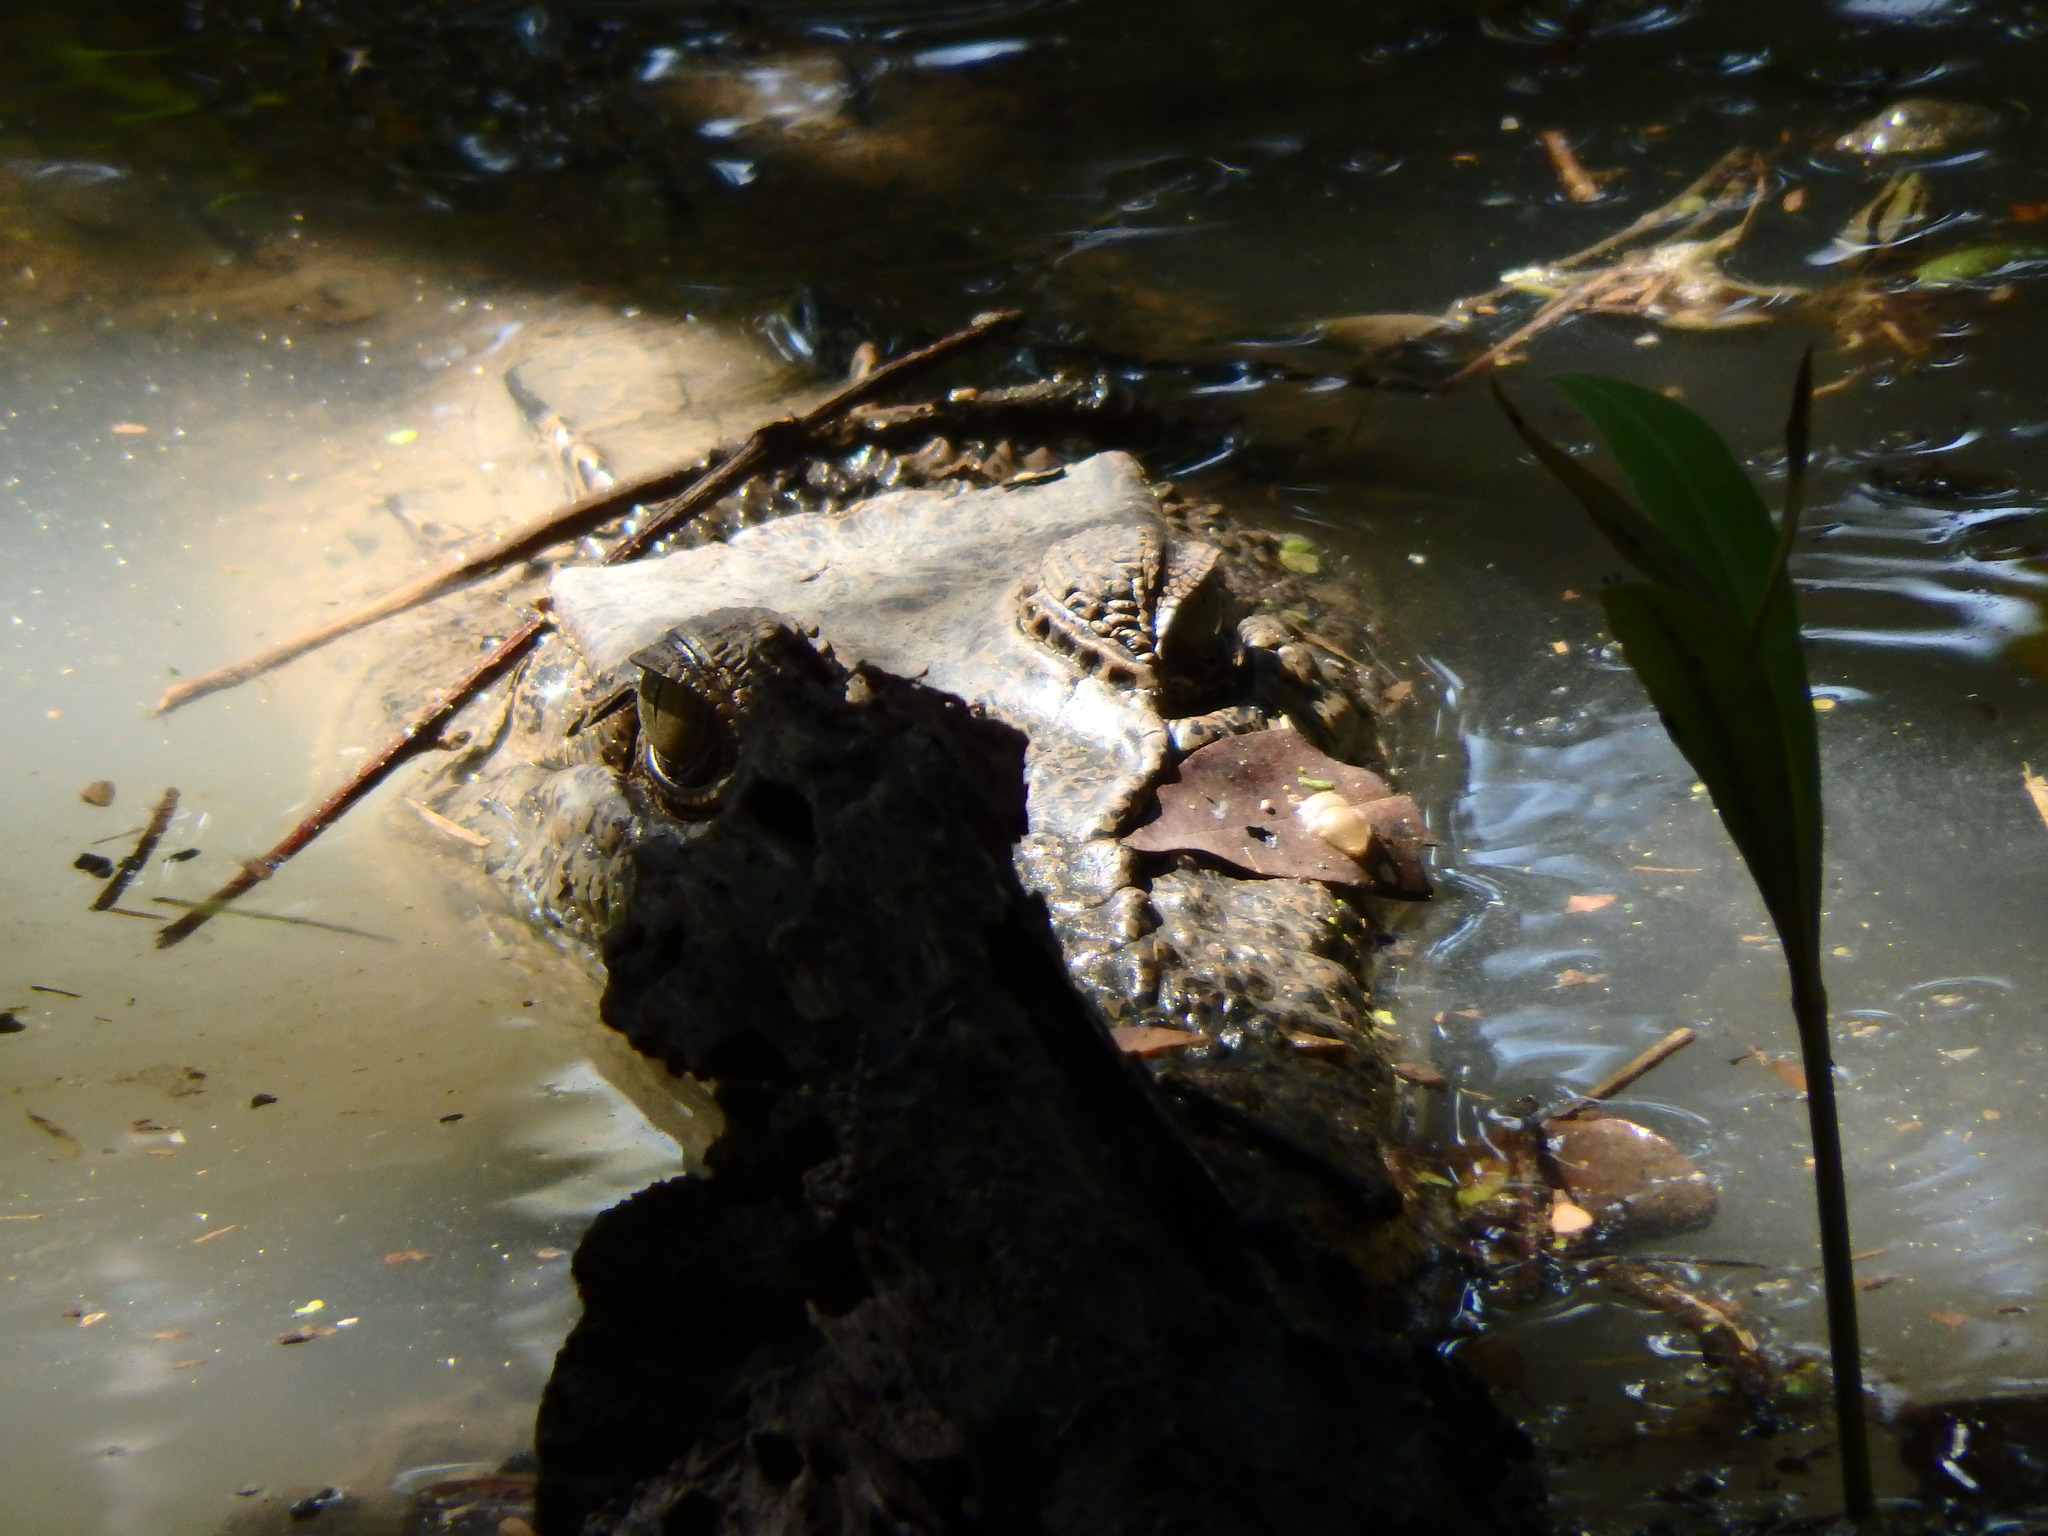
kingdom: Animalia
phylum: Chordata
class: Crocodylia
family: Crocodylidae
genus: Crocodylus
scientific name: Crocodylus porosus
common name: Saltwater crocodile
